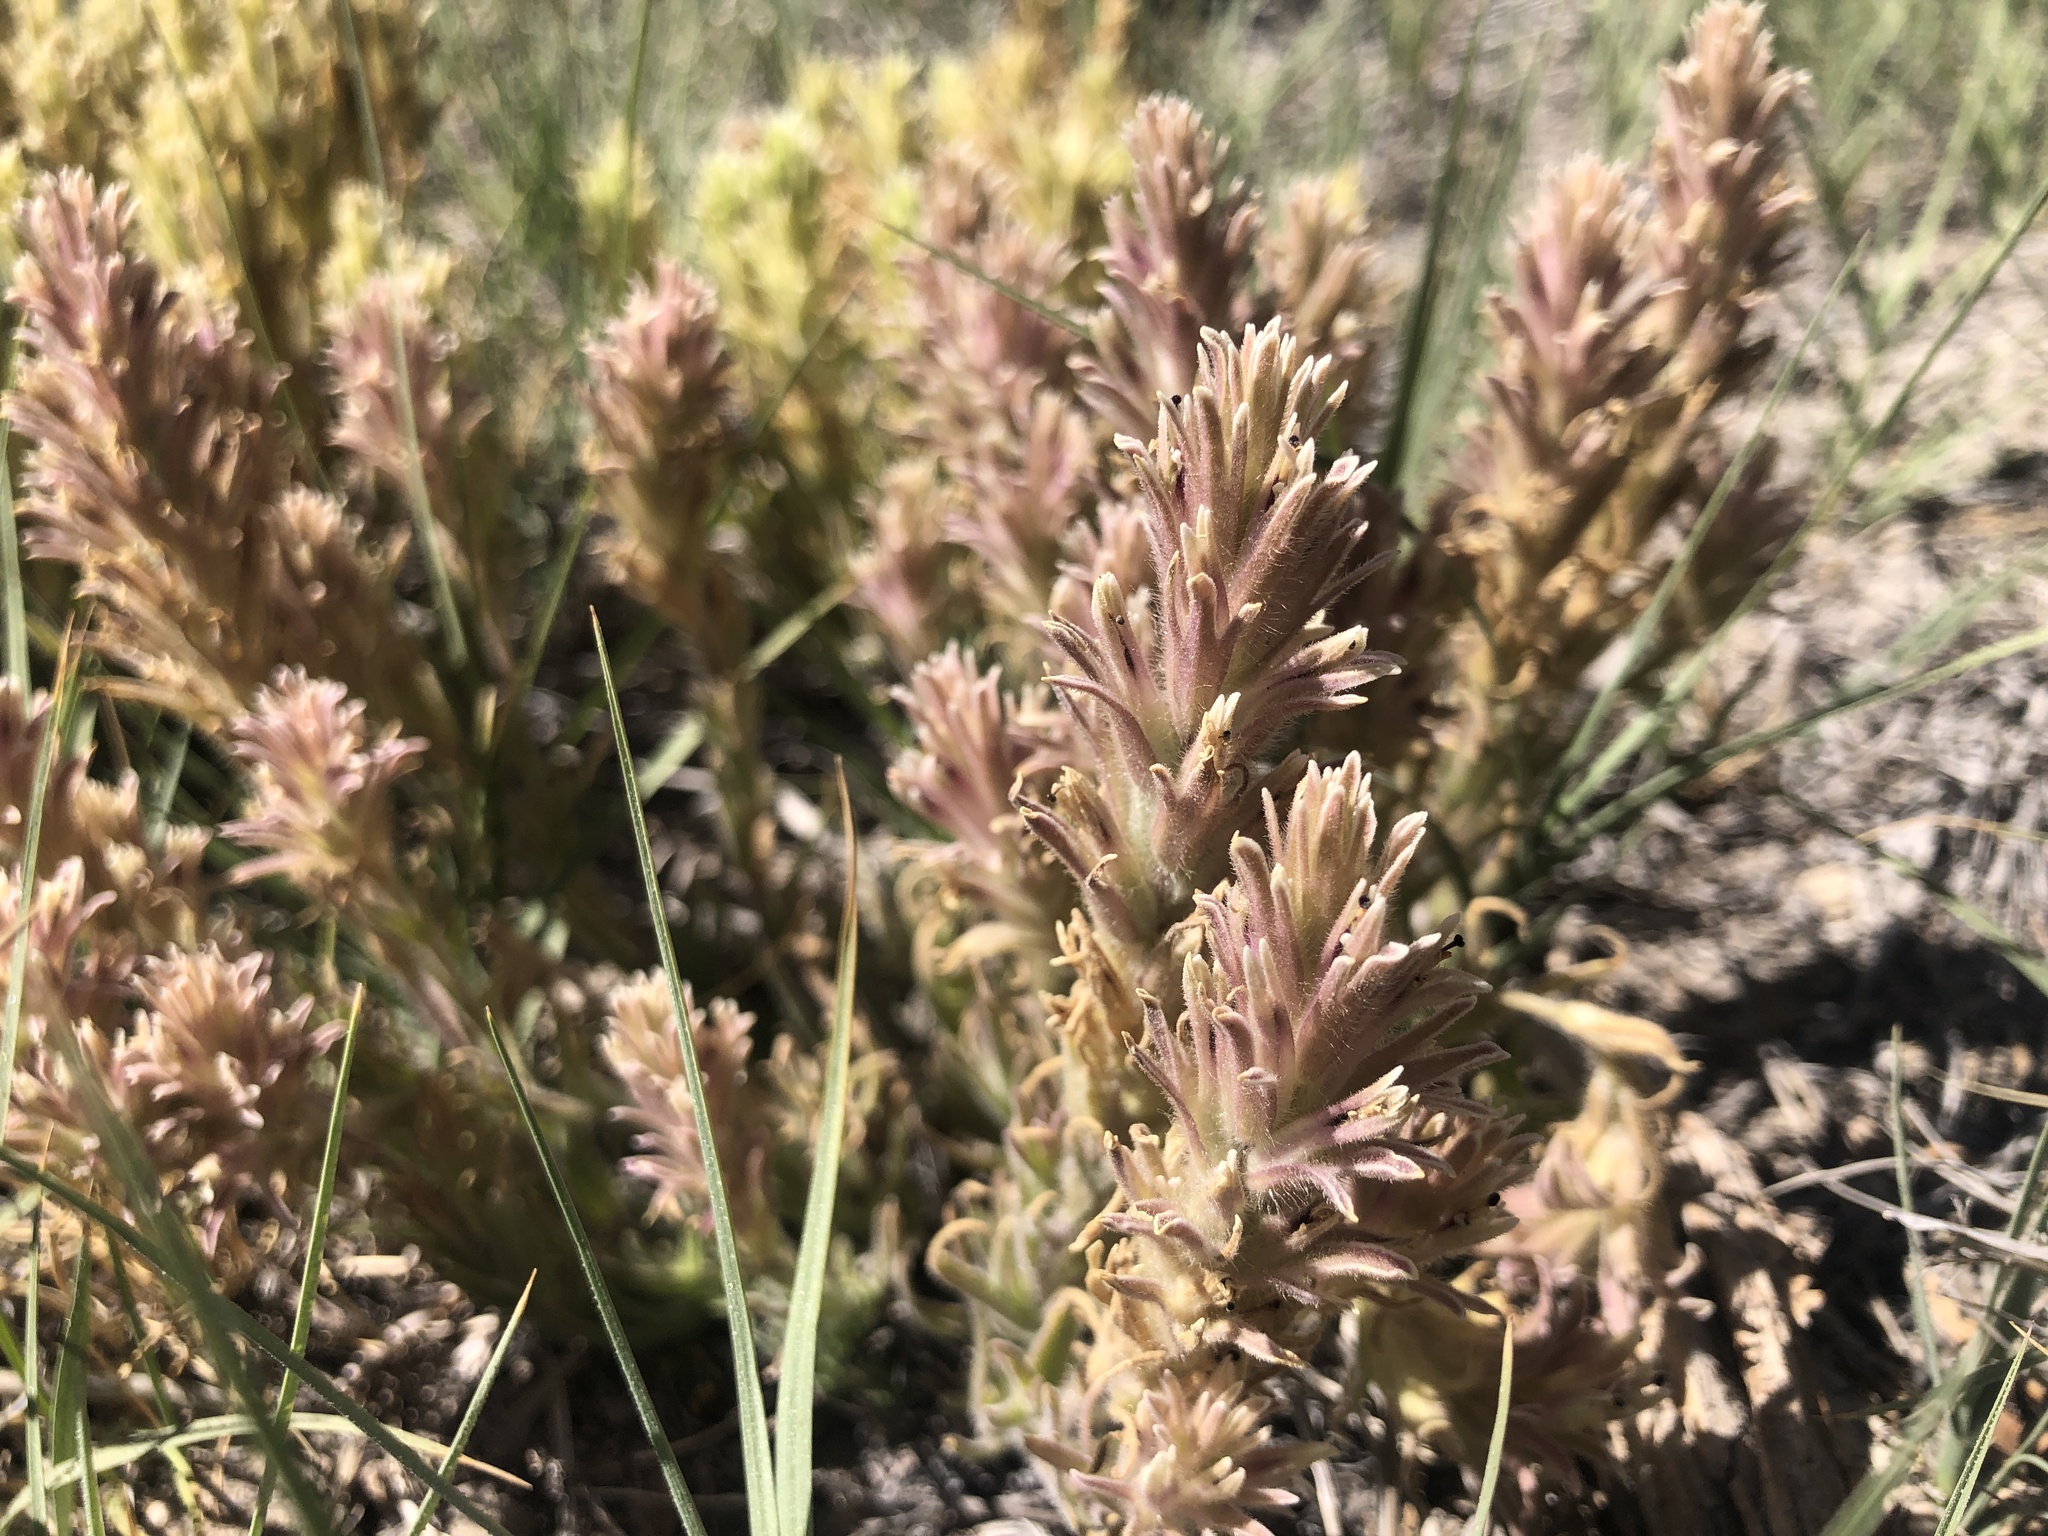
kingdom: Plantae
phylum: Tracheophyta
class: Magnoliopsida
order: Lamiales
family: Orobanchaceae
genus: Castilleja
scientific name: Castilleja nana
